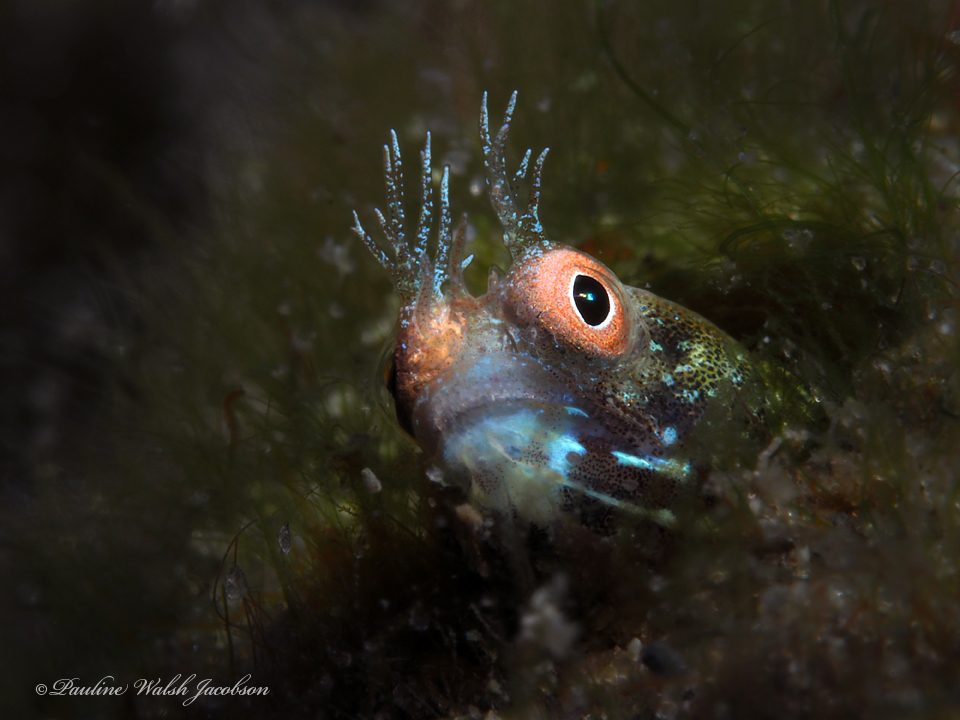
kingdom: Animalia
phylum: Chordata
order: Perciformes
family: Chaenopsidae
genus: Acanthemblemaria
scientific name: Acanthemblemaria aspera
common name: Roughhead blenny
